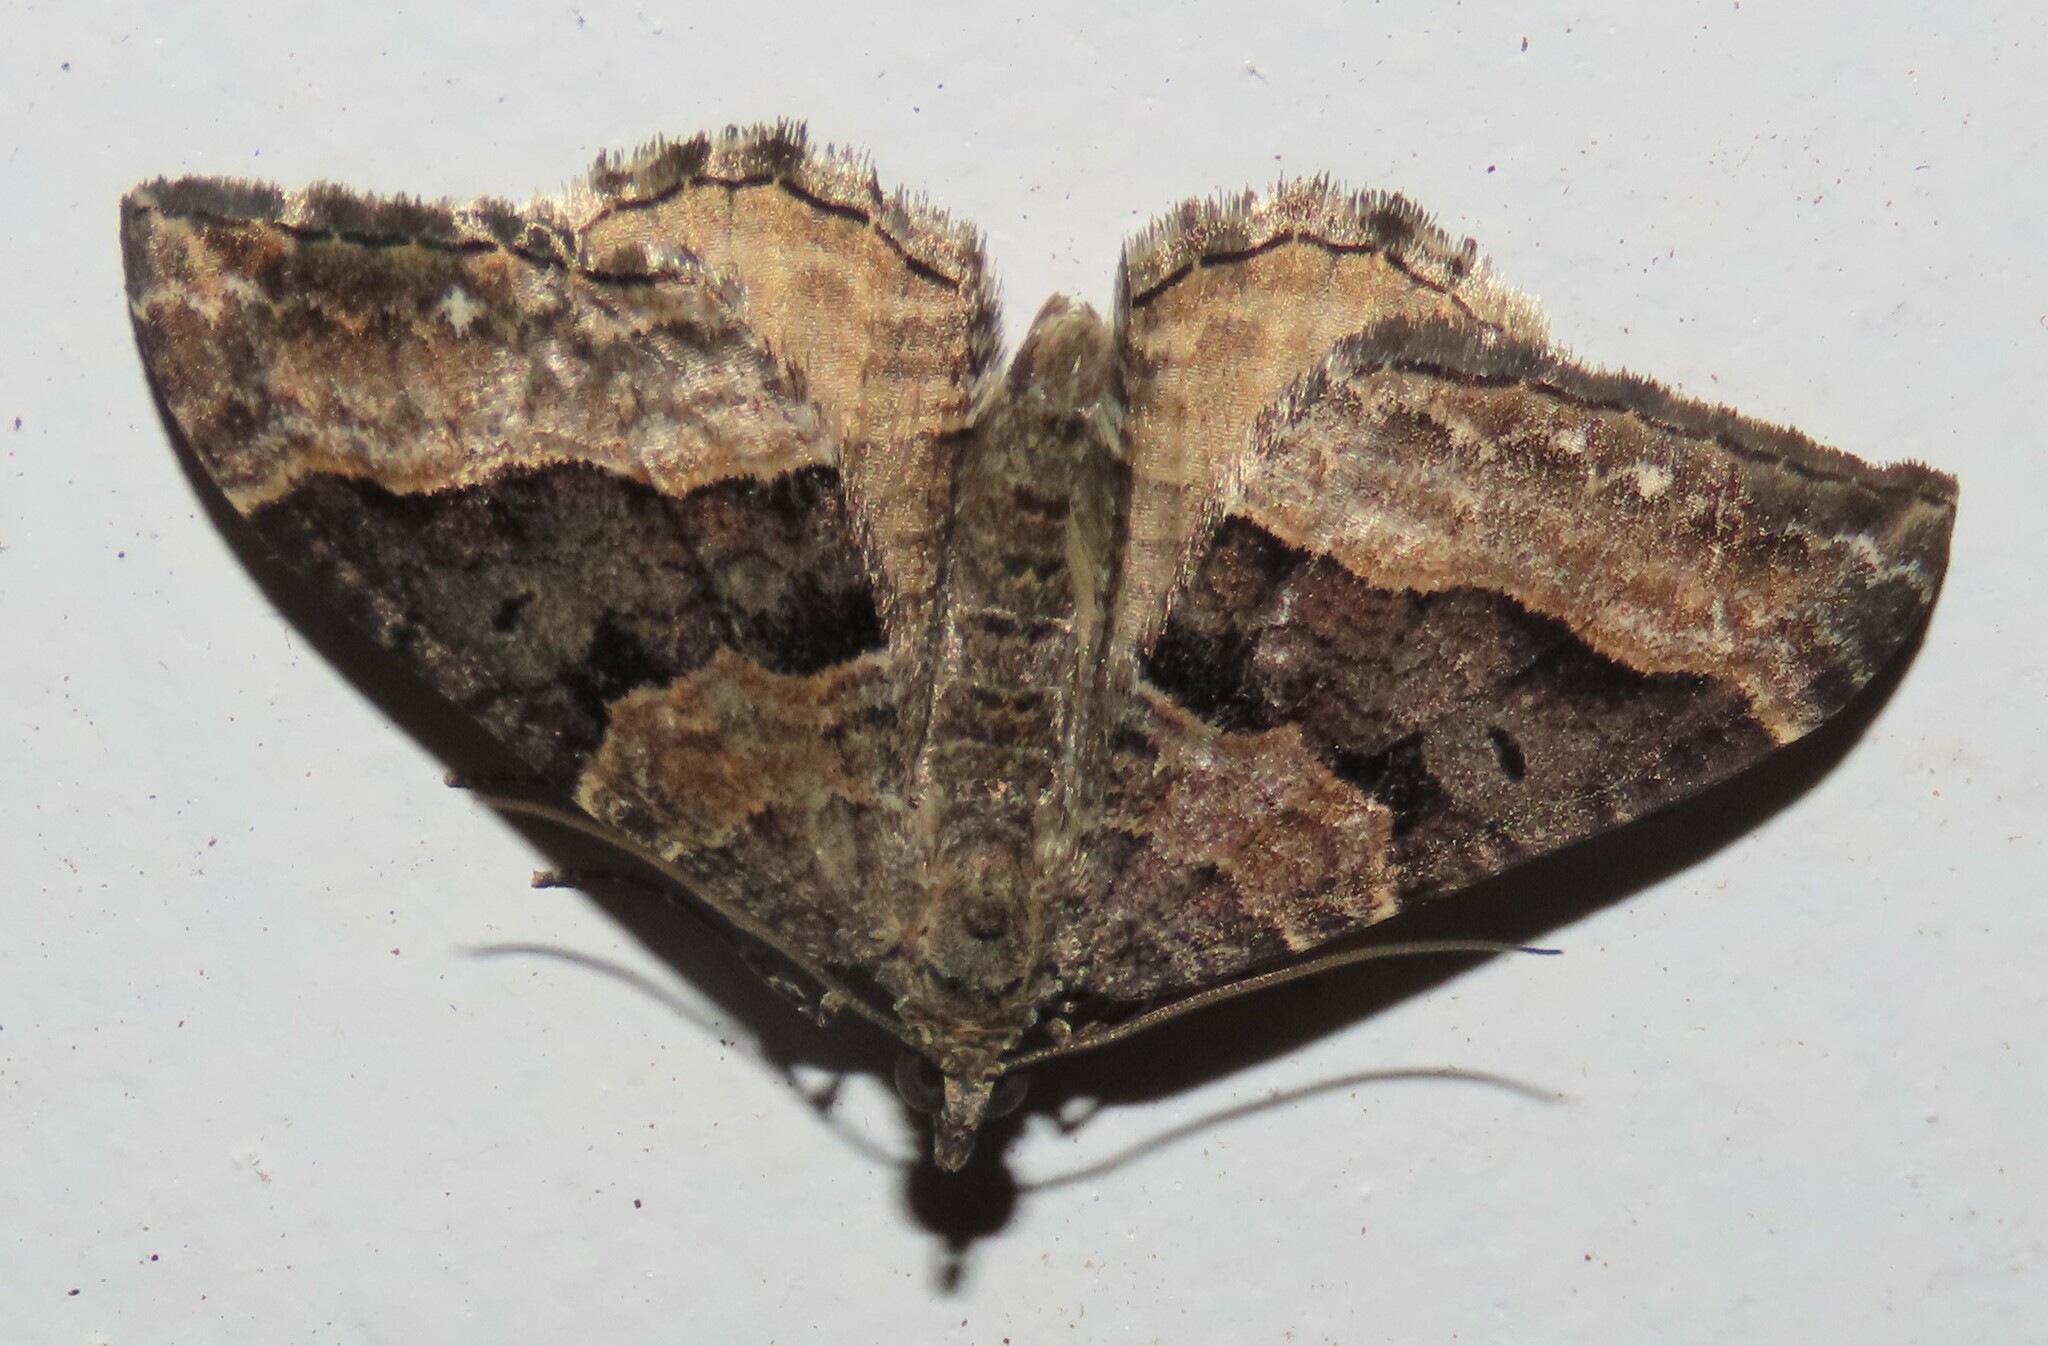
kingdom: Animalia
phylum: Arthropoda
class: Insecta
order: Lepidoptera
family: Geometridae
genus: Hydriomena
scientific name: Hydriomena deltoidata
